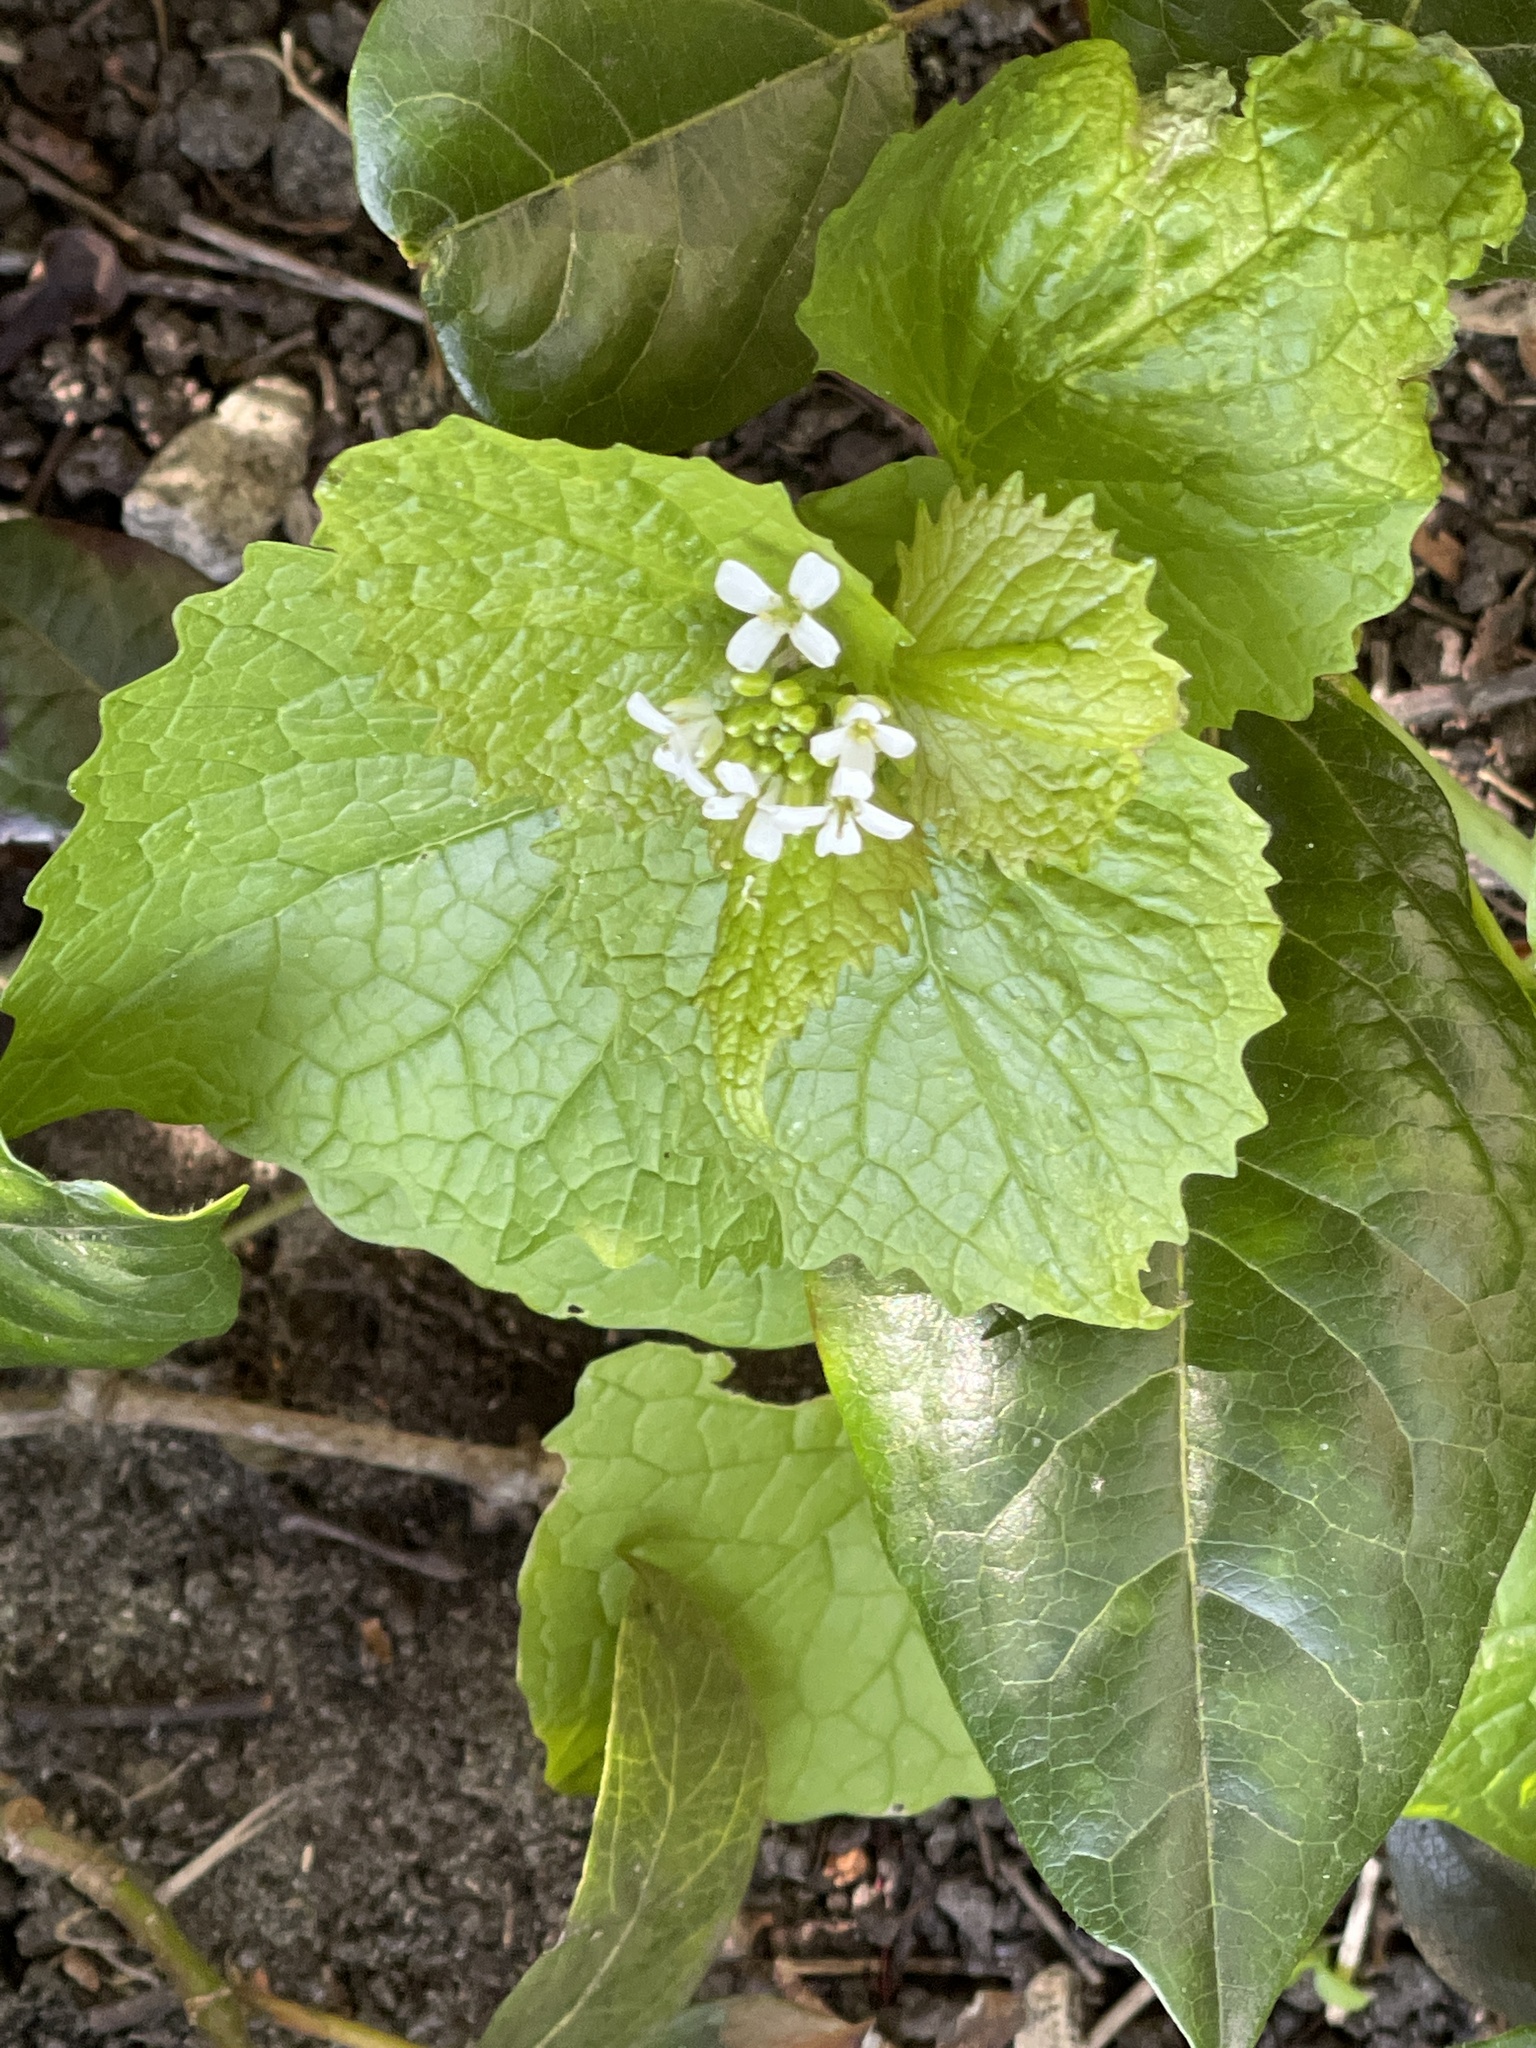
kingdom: Plantae
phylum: Tracheophyta
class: Magnoliopsida
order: Brassicales
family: Brassicaceae
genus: Alliaria
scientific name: Alliaria petiolata
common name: Garlic mustard
